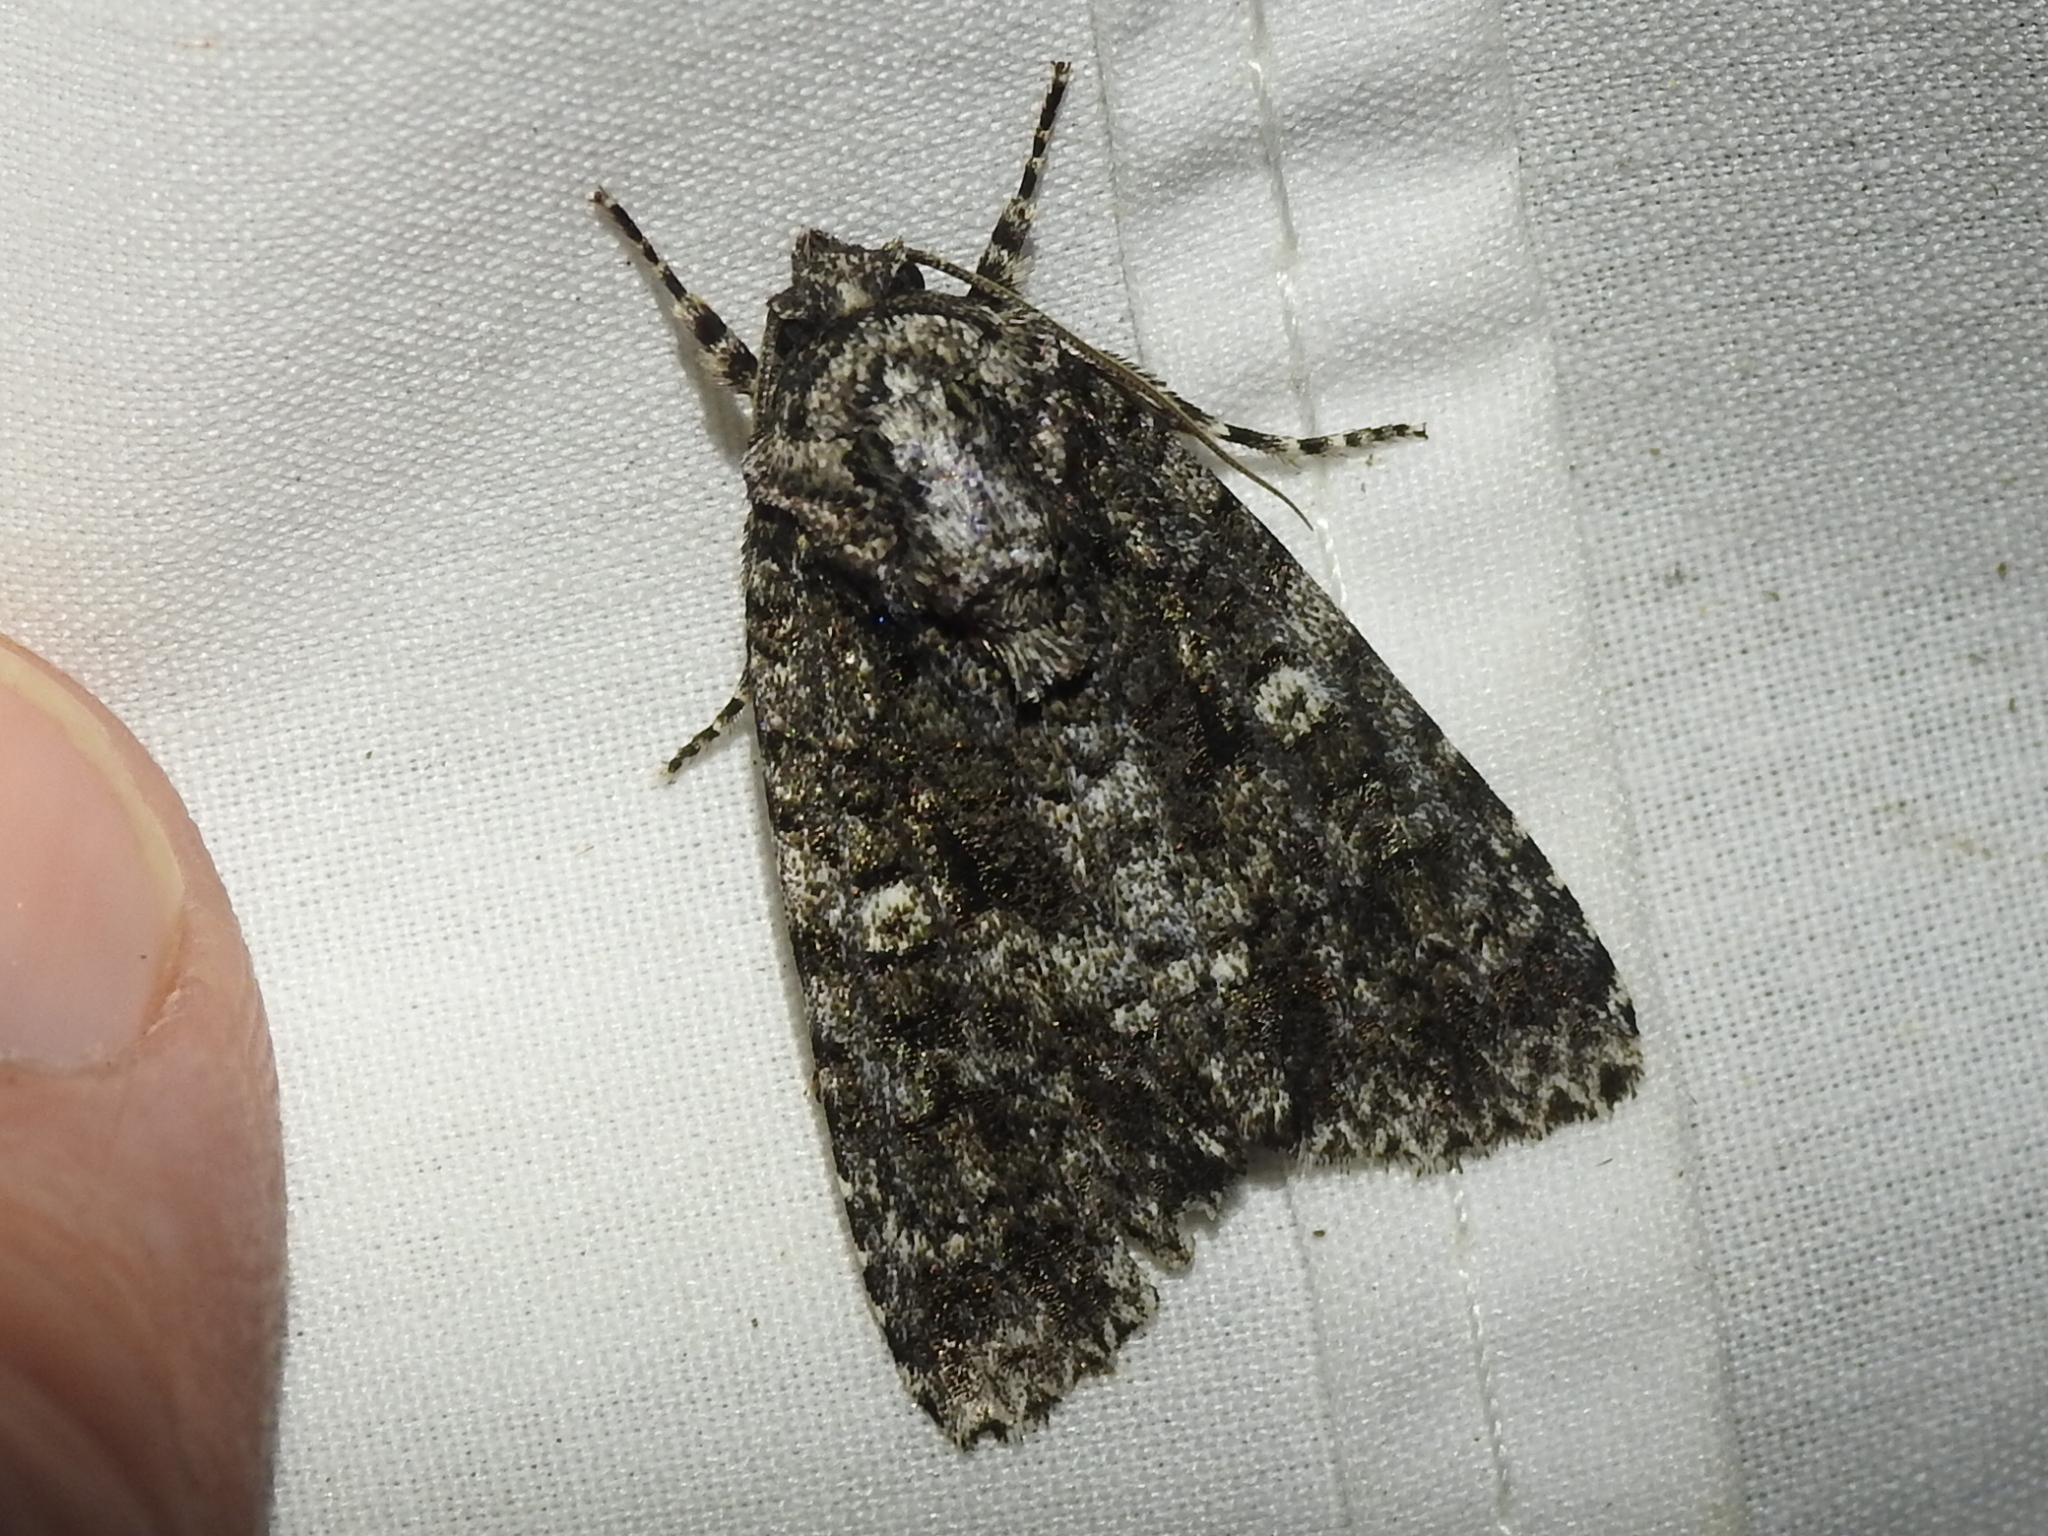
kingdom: Animalia
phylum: Arthropoda
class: Insecta
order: Lepidoptera
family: Noctuidae
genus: Acronicta
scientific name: Acronicta afflicta
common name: Afflicted dagger moth
